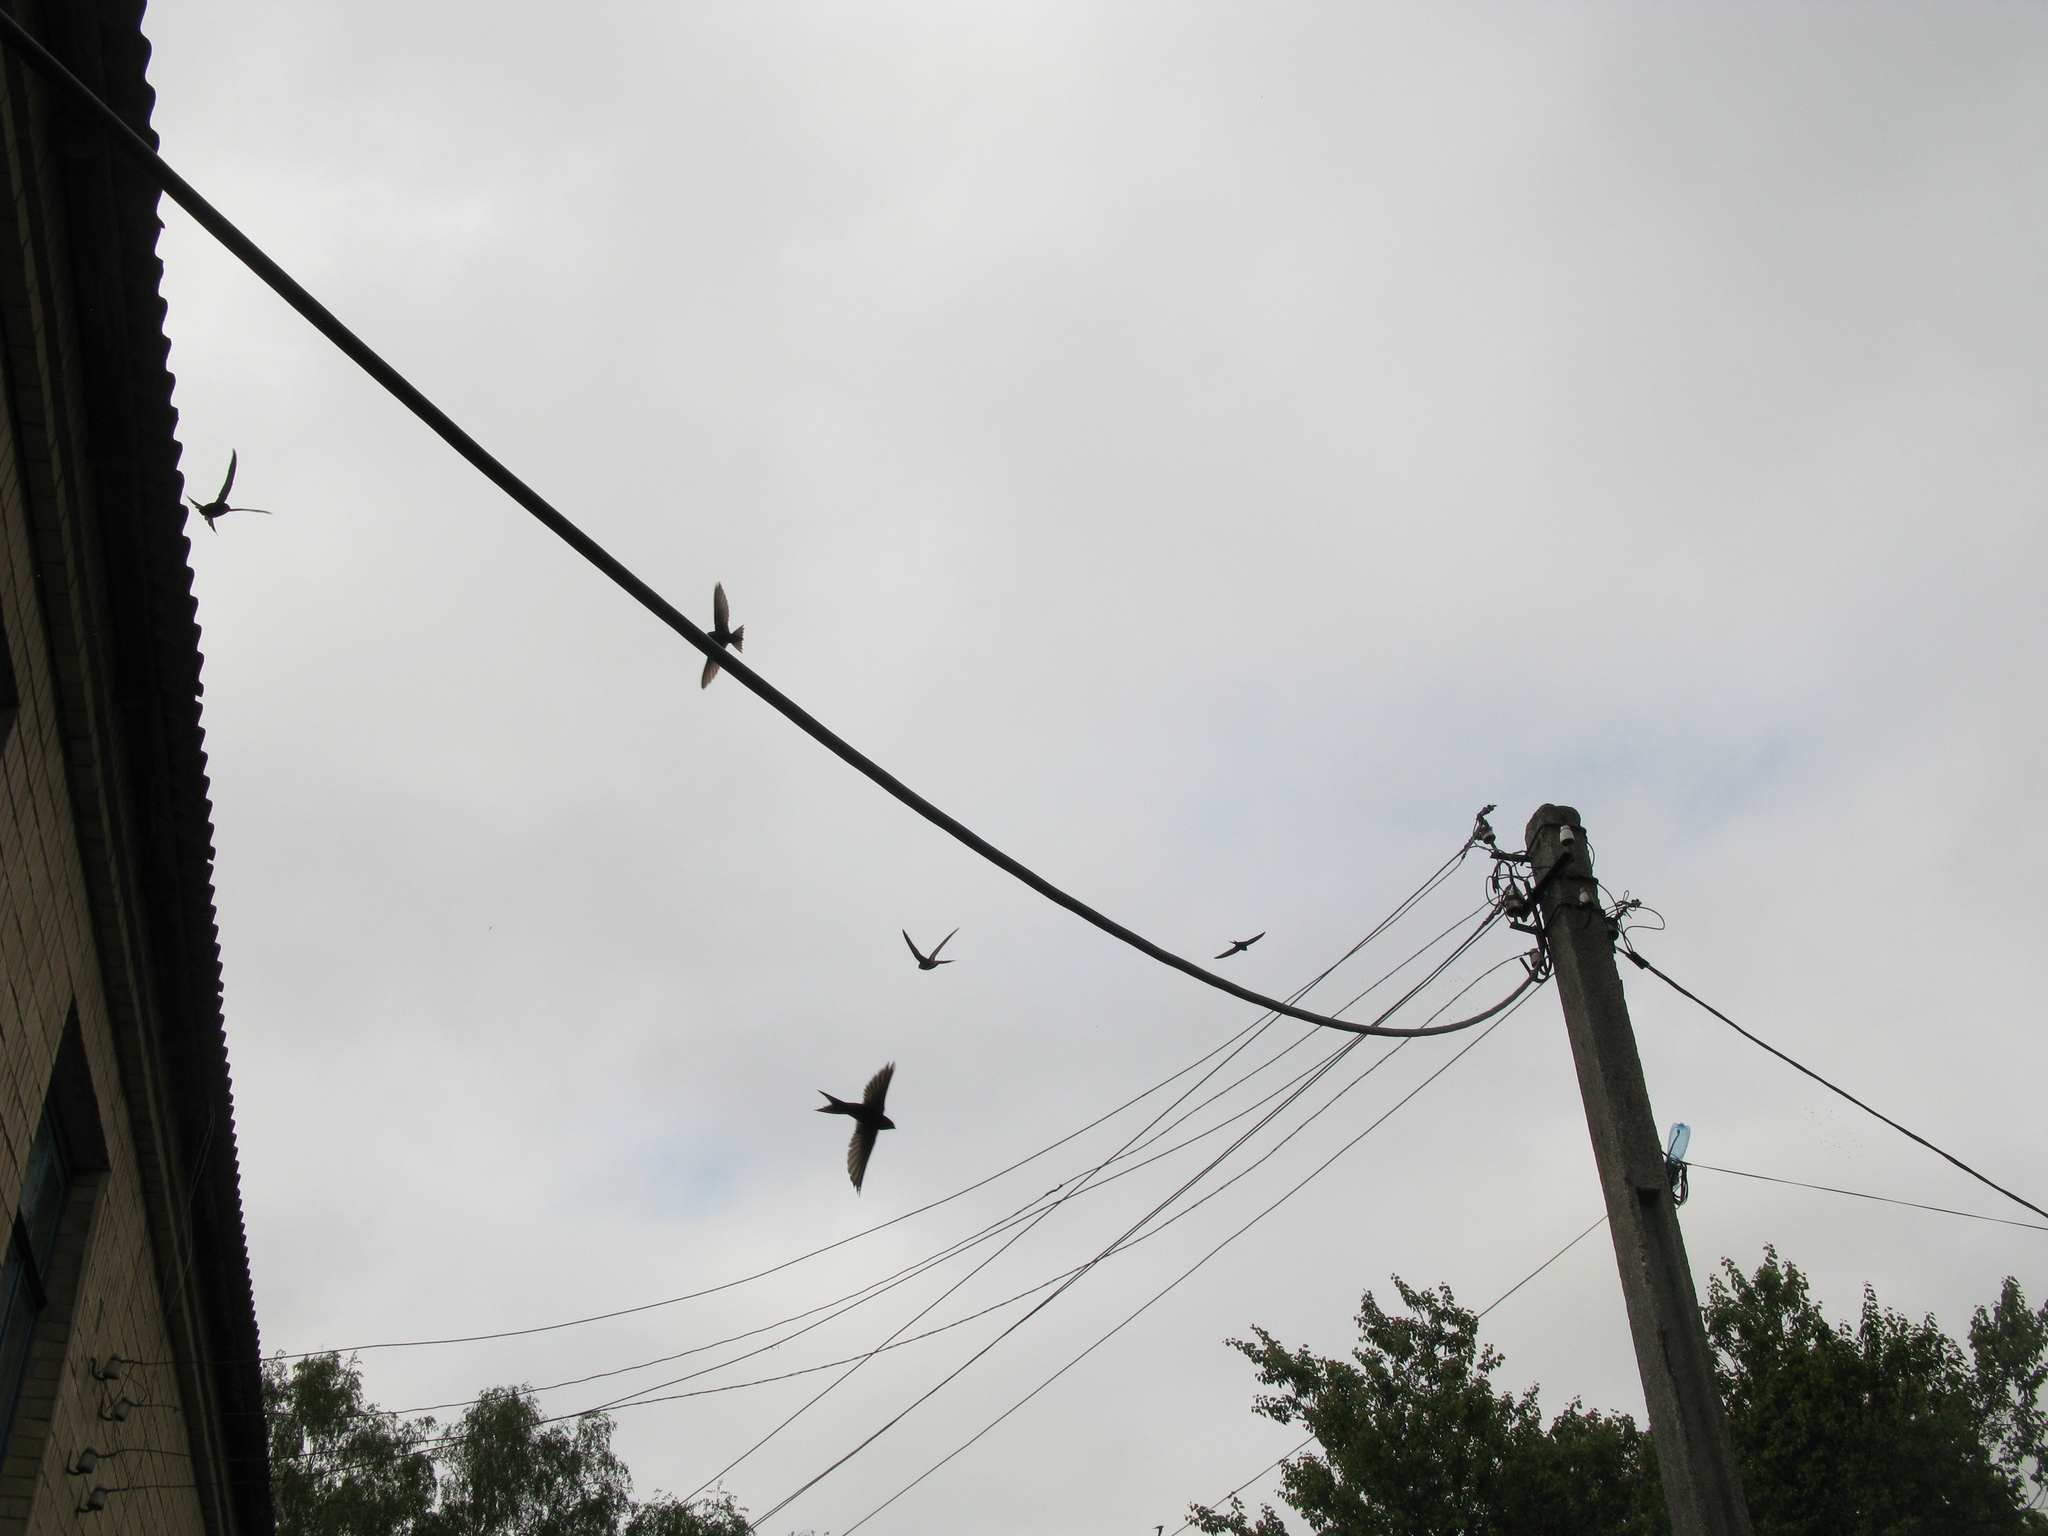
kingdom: Animalia
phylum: Chordata
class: Aves
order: Apodiformes
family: Apodidae
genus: Apus
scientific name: Apus apus
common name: Common swift
